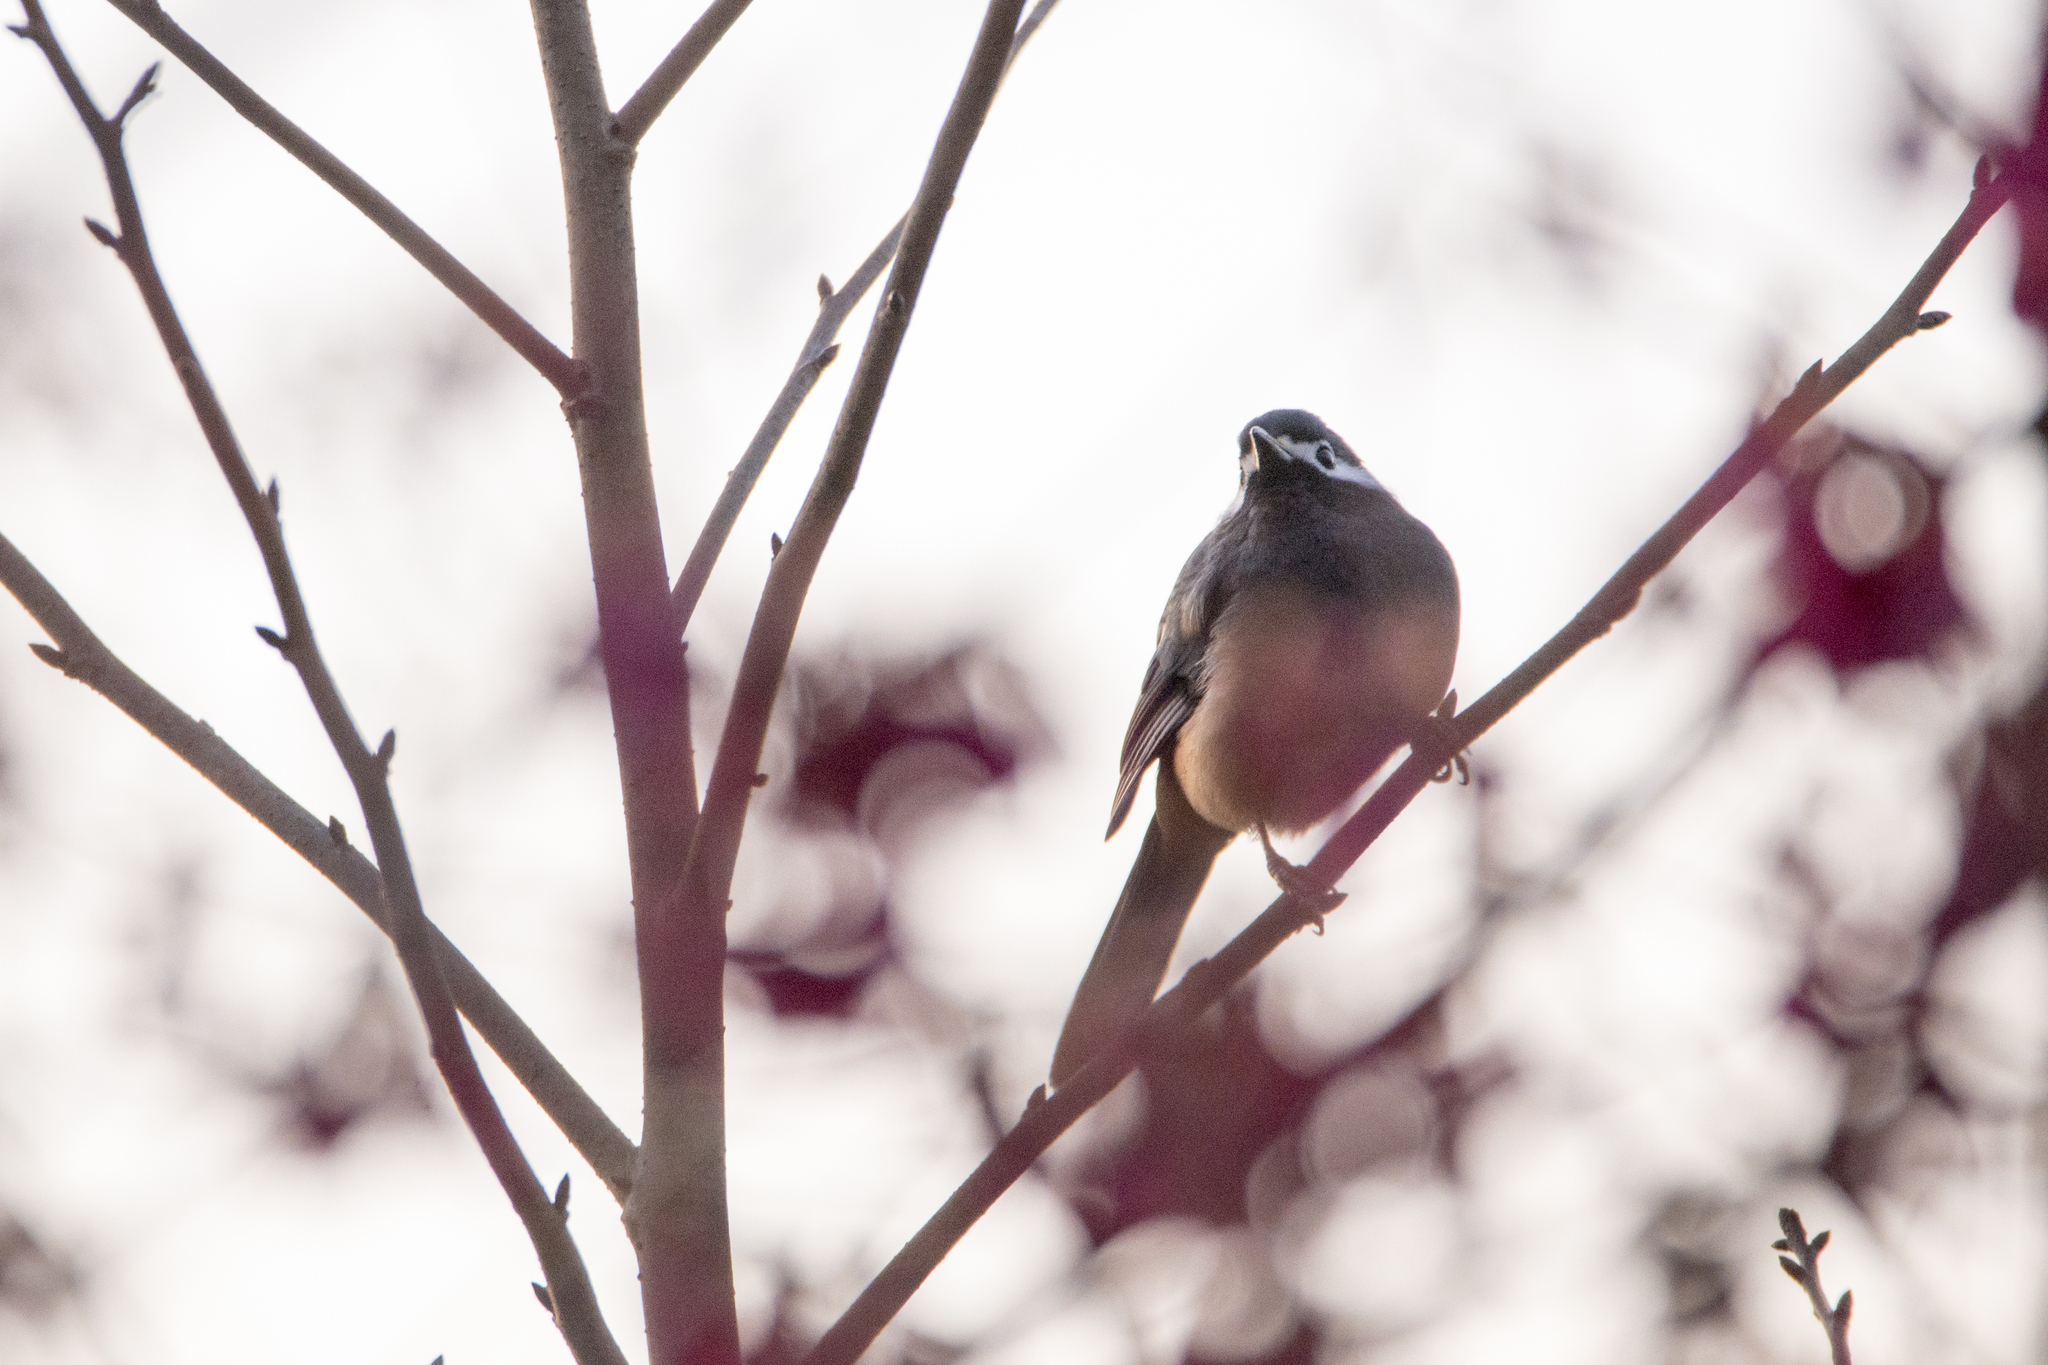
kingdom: Animalia
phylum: Chordata
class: Aves
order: Passeriformes
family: Leiothrichidae
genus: Heterophasia
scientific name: Heterophasia auricularis
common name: White-eared sibia
